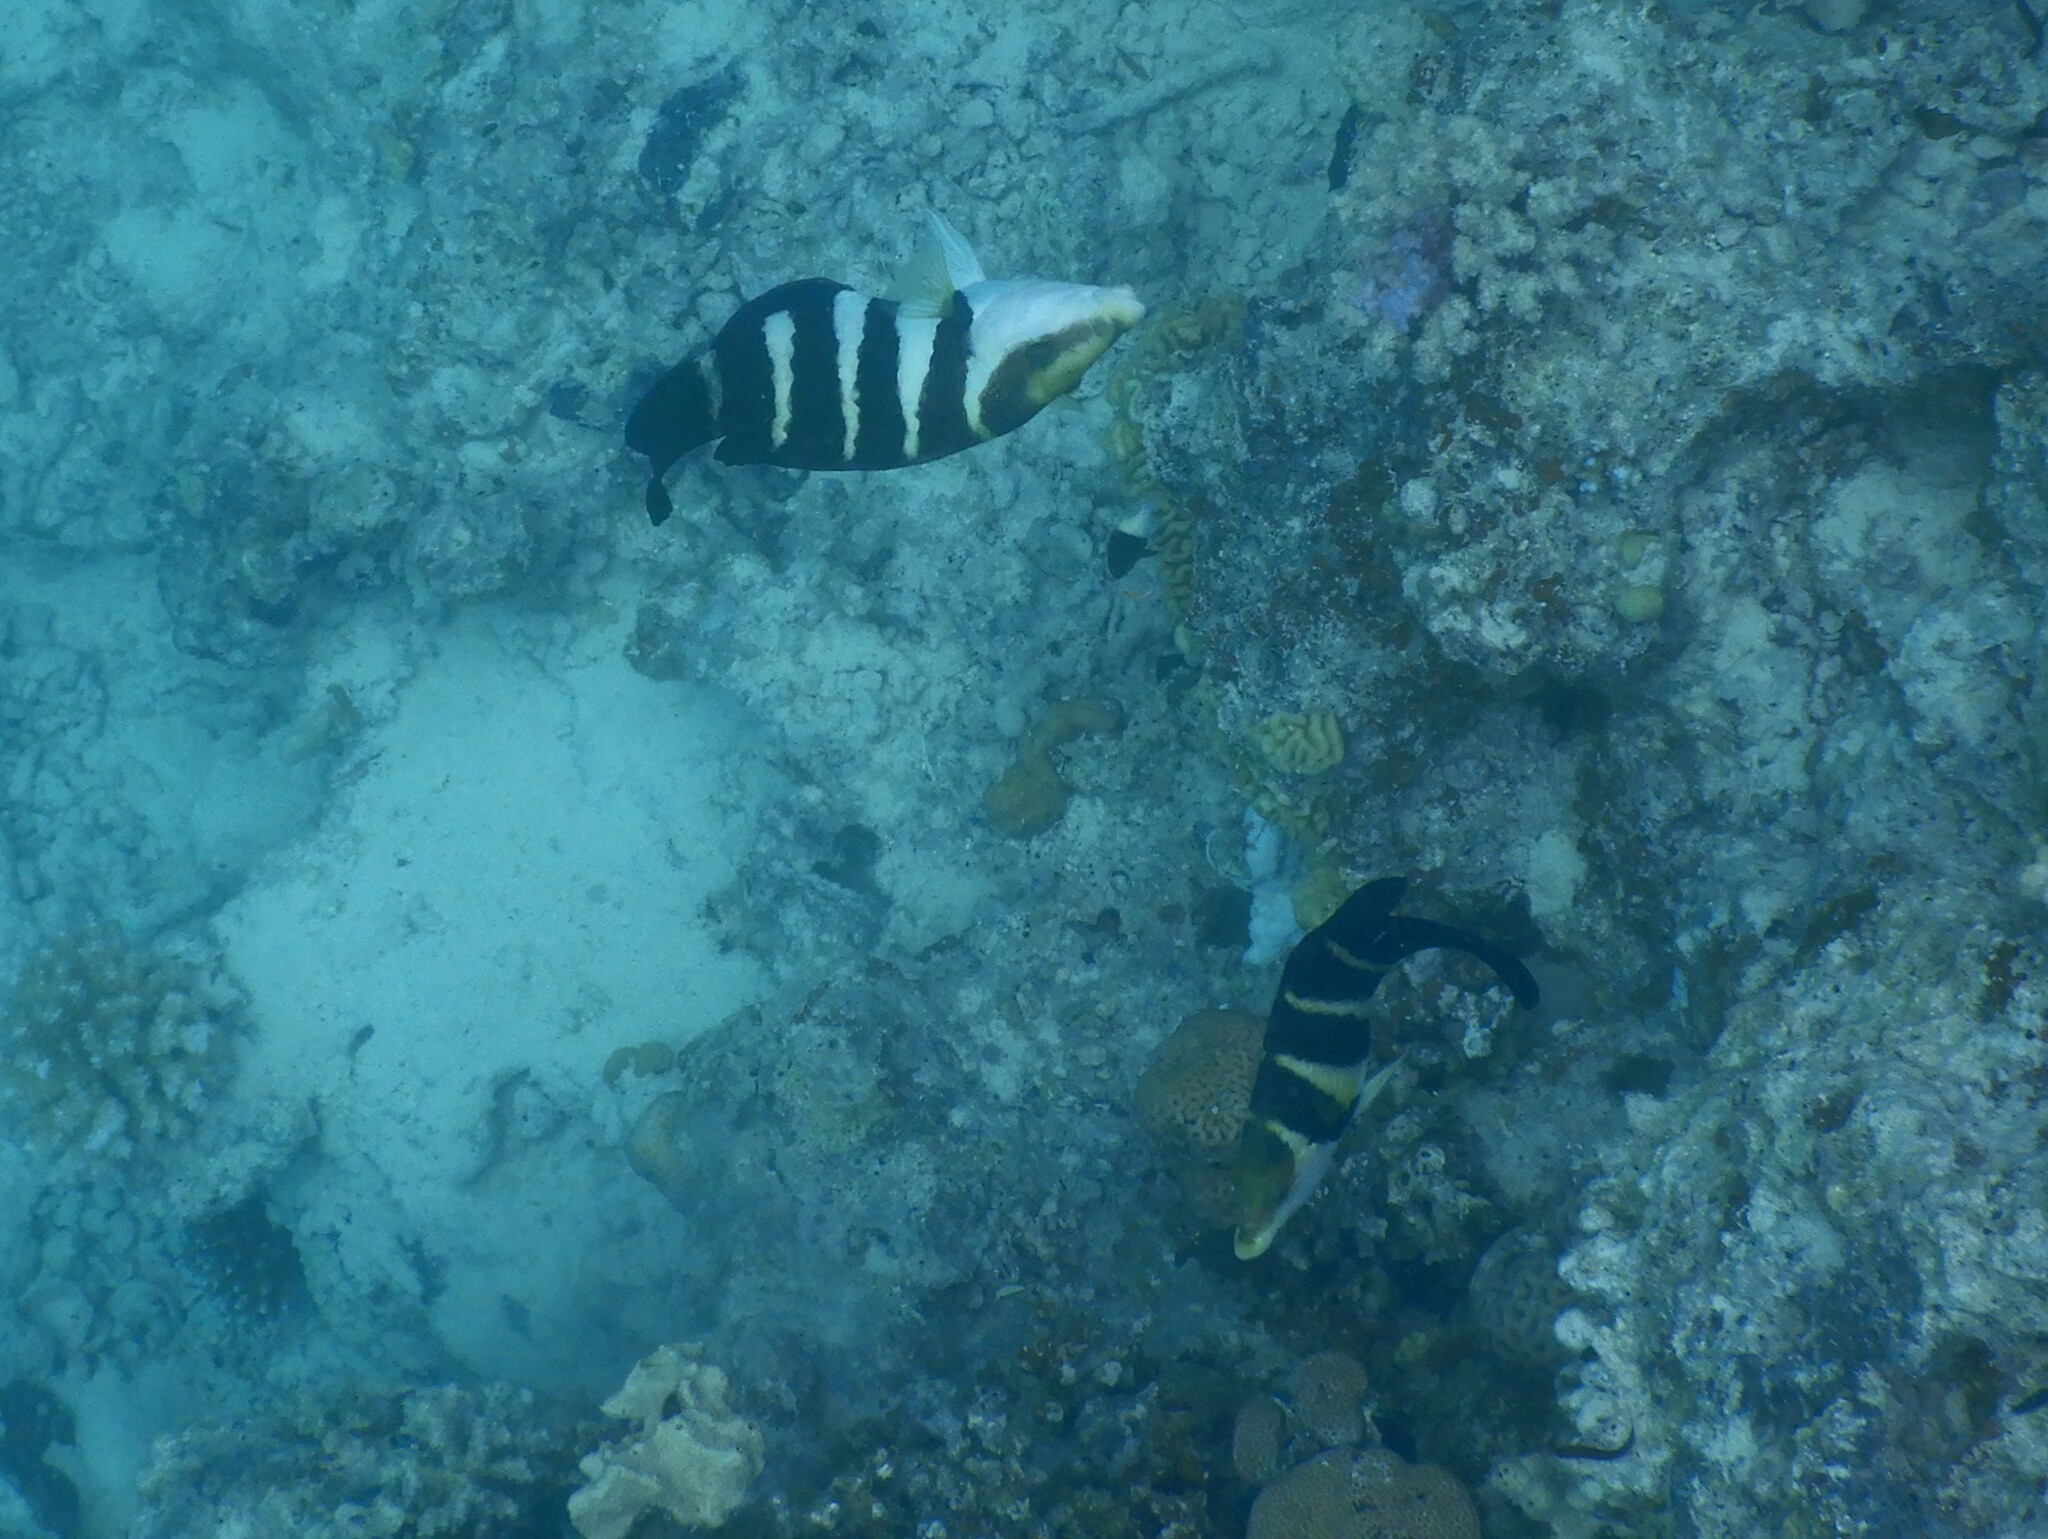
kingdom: Animalia
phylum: Chordata
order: Perciformes
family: Labridae
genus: Hemigymnus
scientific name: Hemigymnus sexfasciatus
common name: Barred thicklip
